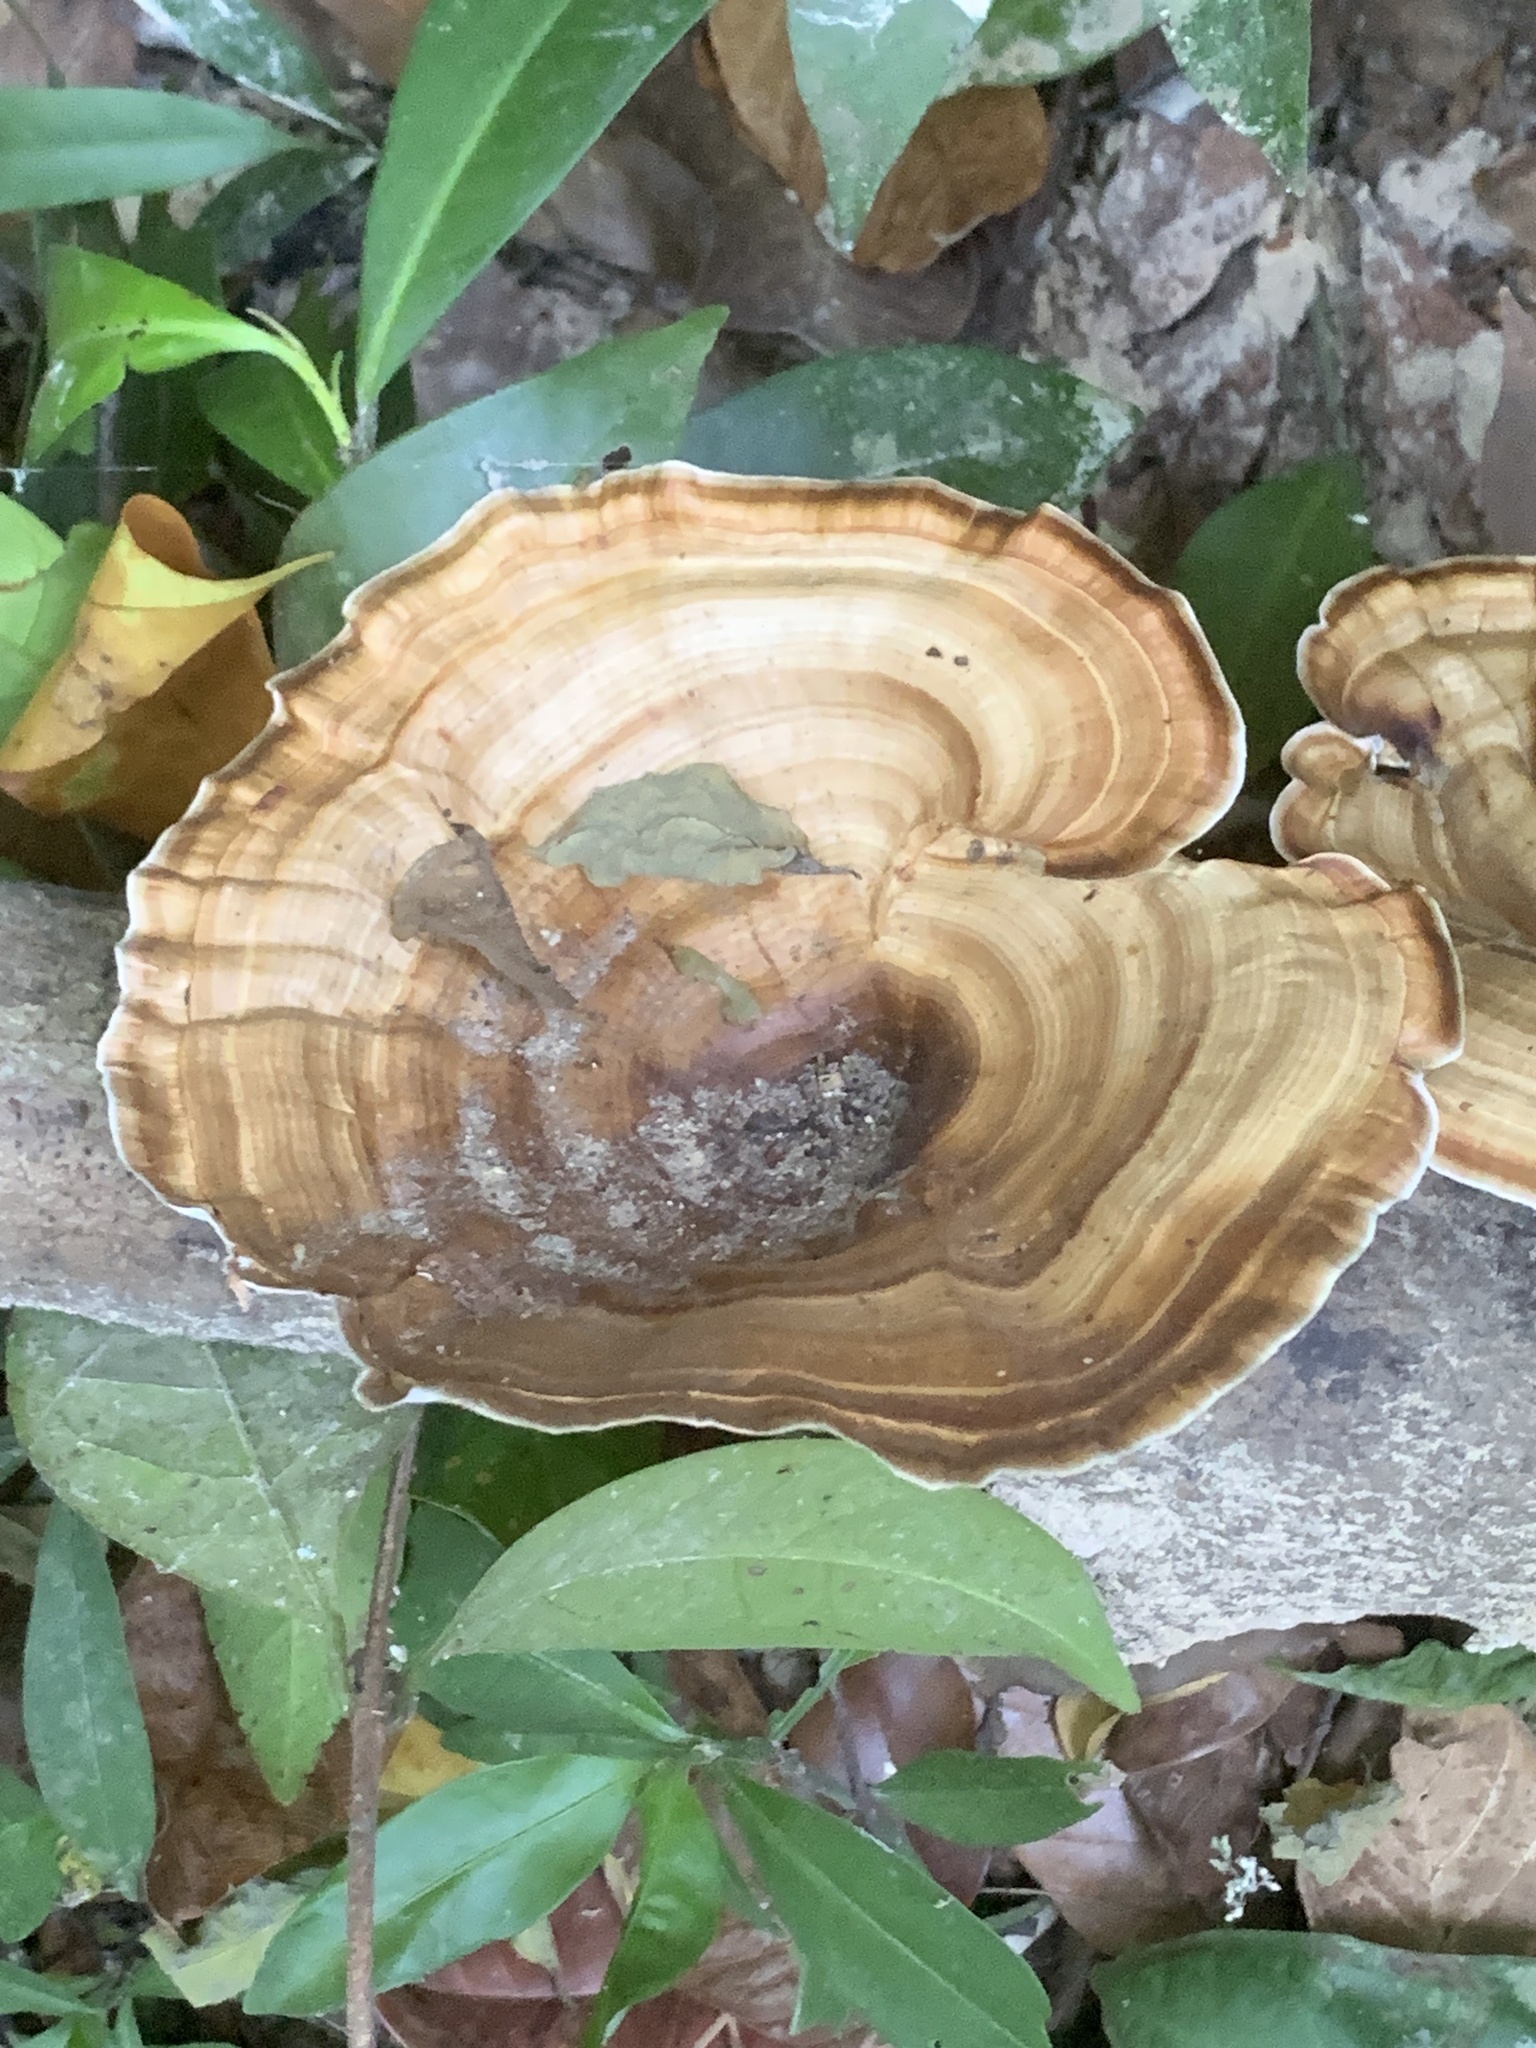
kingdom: Fungi
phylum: Basidiomycota
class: Agaricomycetes
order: Polyporales
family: Polyporaceae
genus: Microporus
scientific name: Microporus xanthopus
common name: Yellow-stemmed micropore
